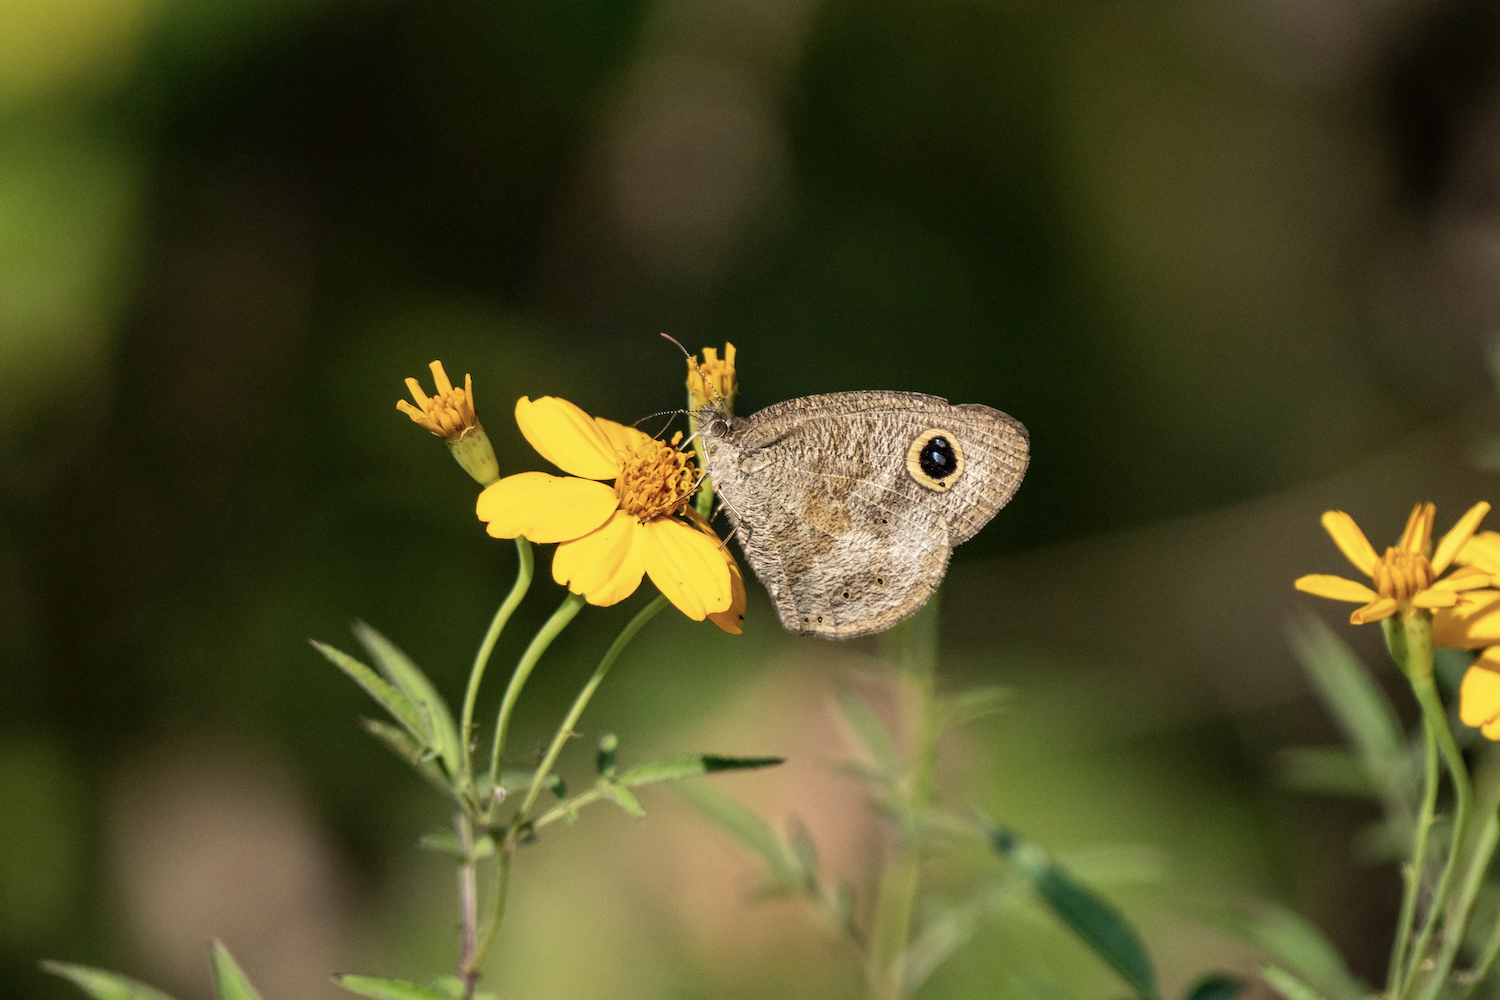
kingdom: Animalia
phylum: Arthropoda
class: Insecta
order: Lepidoptera
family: Nymphalidae
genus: Ypthima
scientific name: Ypthima baldus
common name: Common five-ring
